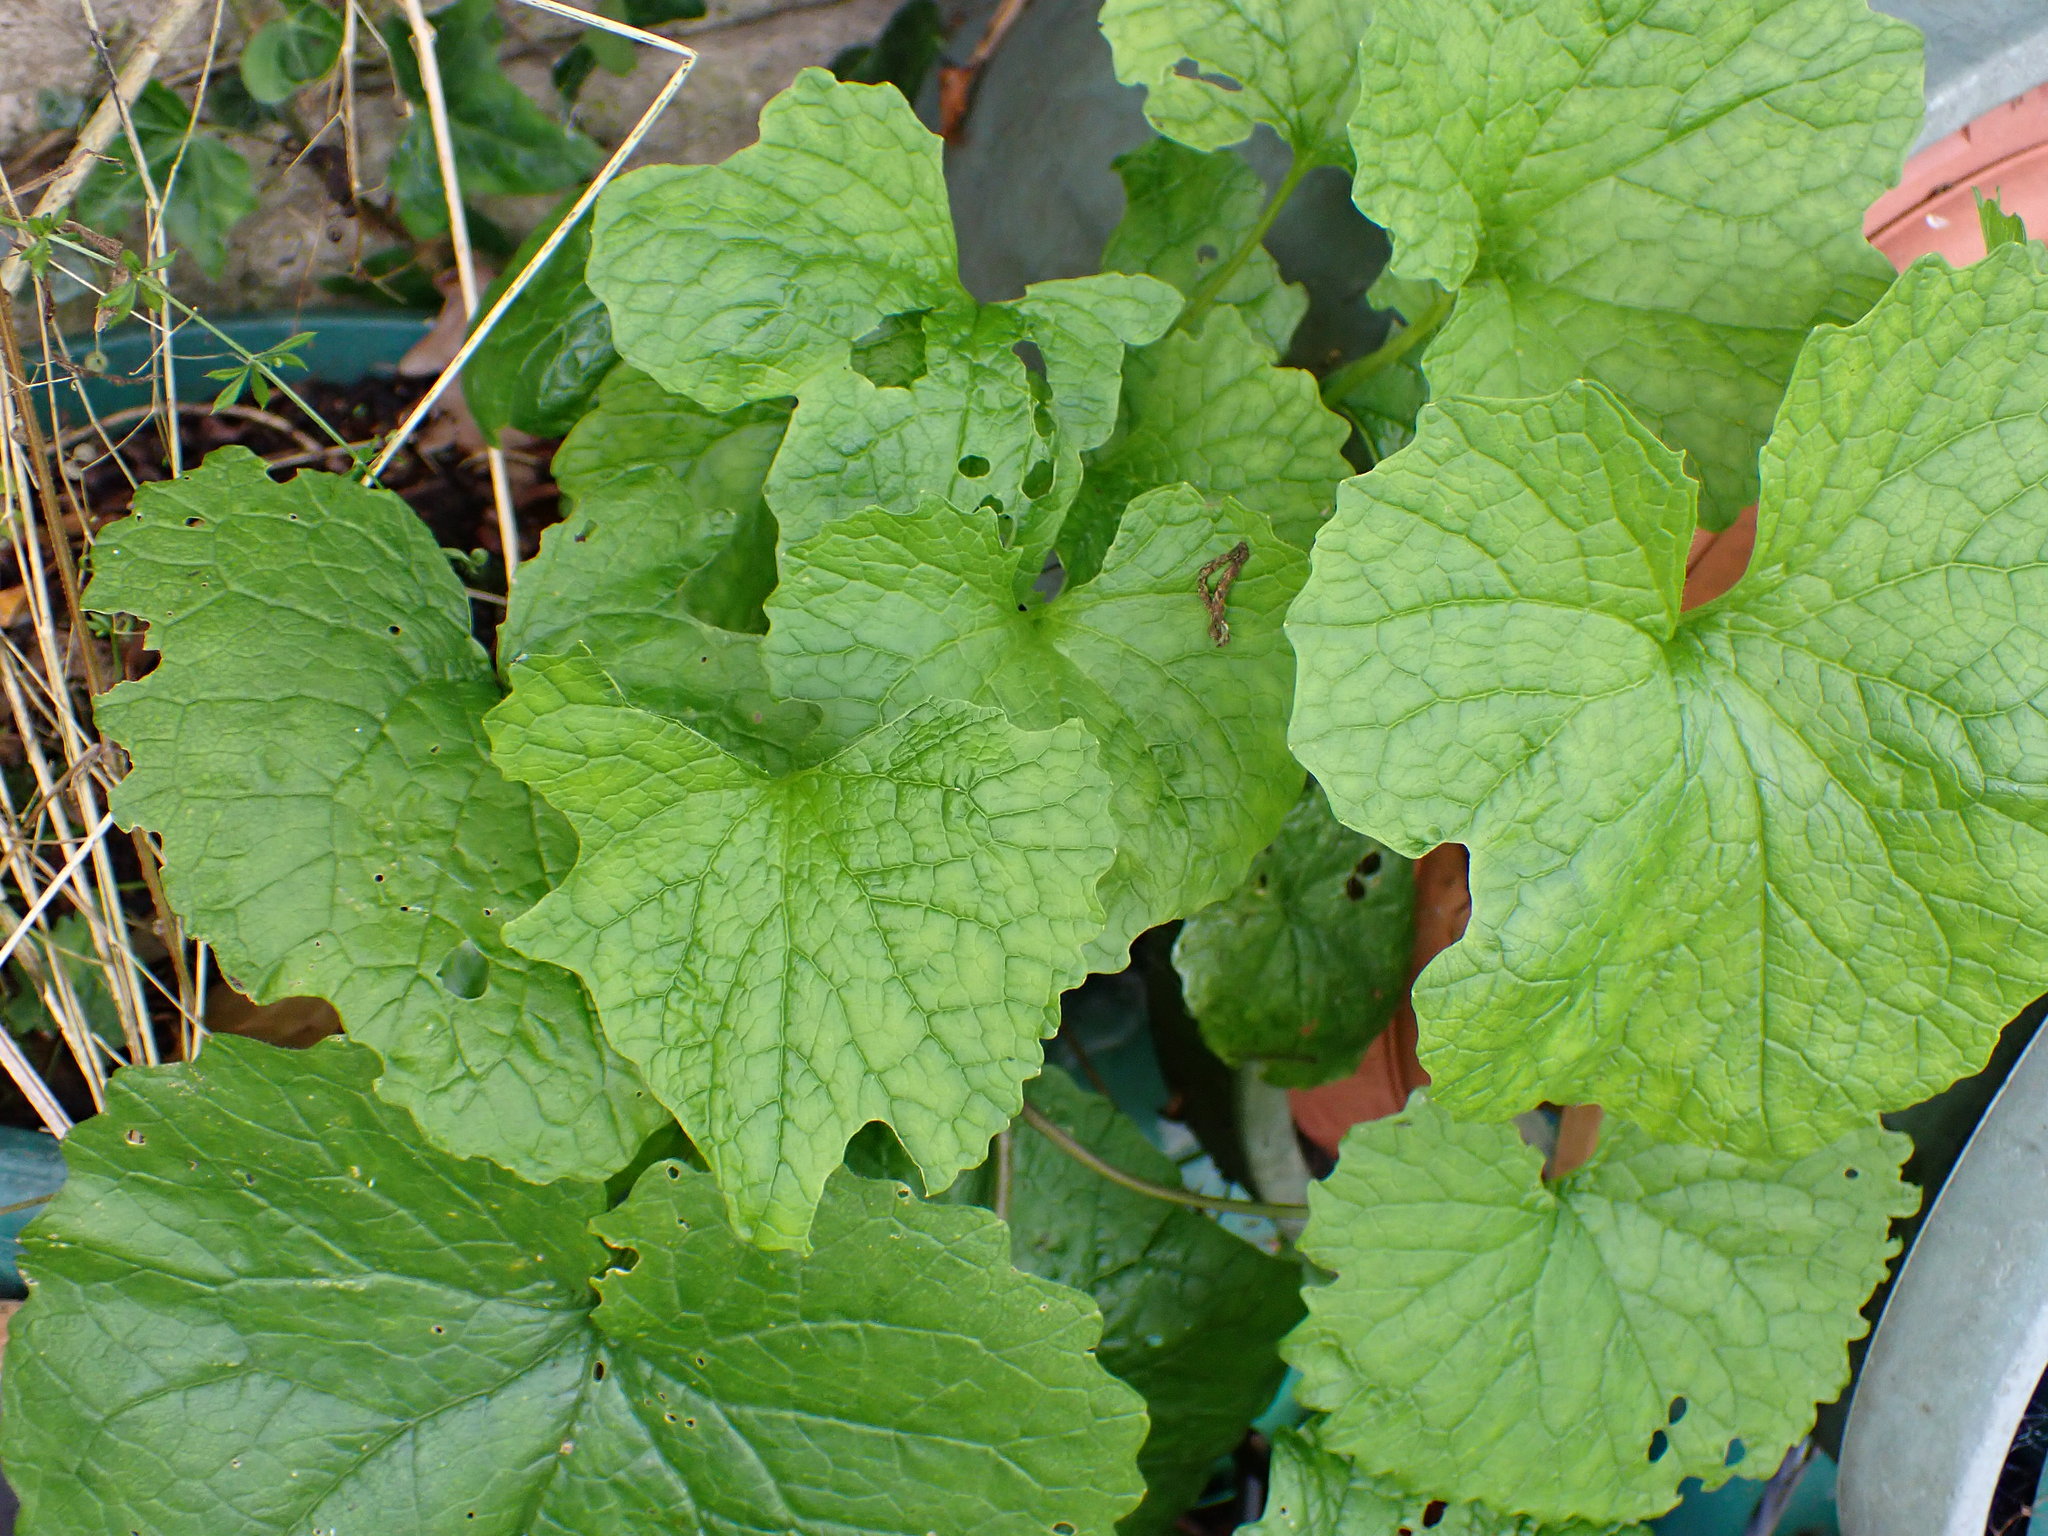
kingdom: Plantae
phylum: Tracheophyta
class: Magnoliopsida
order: Brassicales
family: Brassicaceae
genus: Alliaria
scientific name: Alliaria petiolata
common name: Garlic mustard
